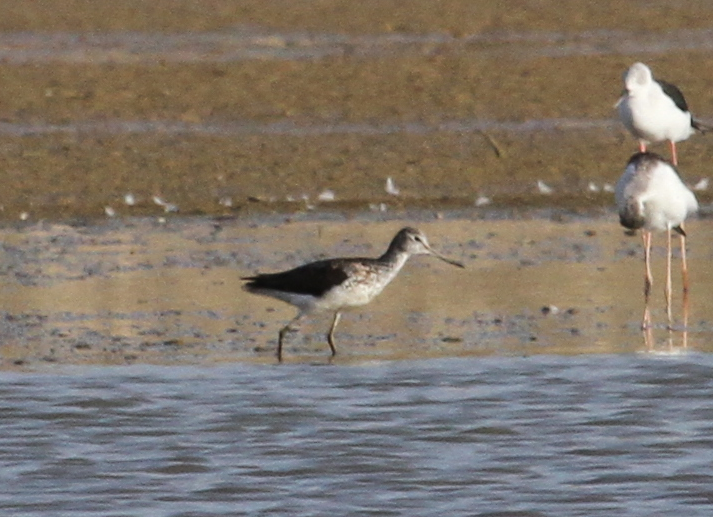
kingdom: Animalia
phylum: Chordata
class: Aves
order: Charadriiformes
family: Scolopacidae
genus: Tringa
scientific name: Tringa nebularia
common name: Common greenshank
